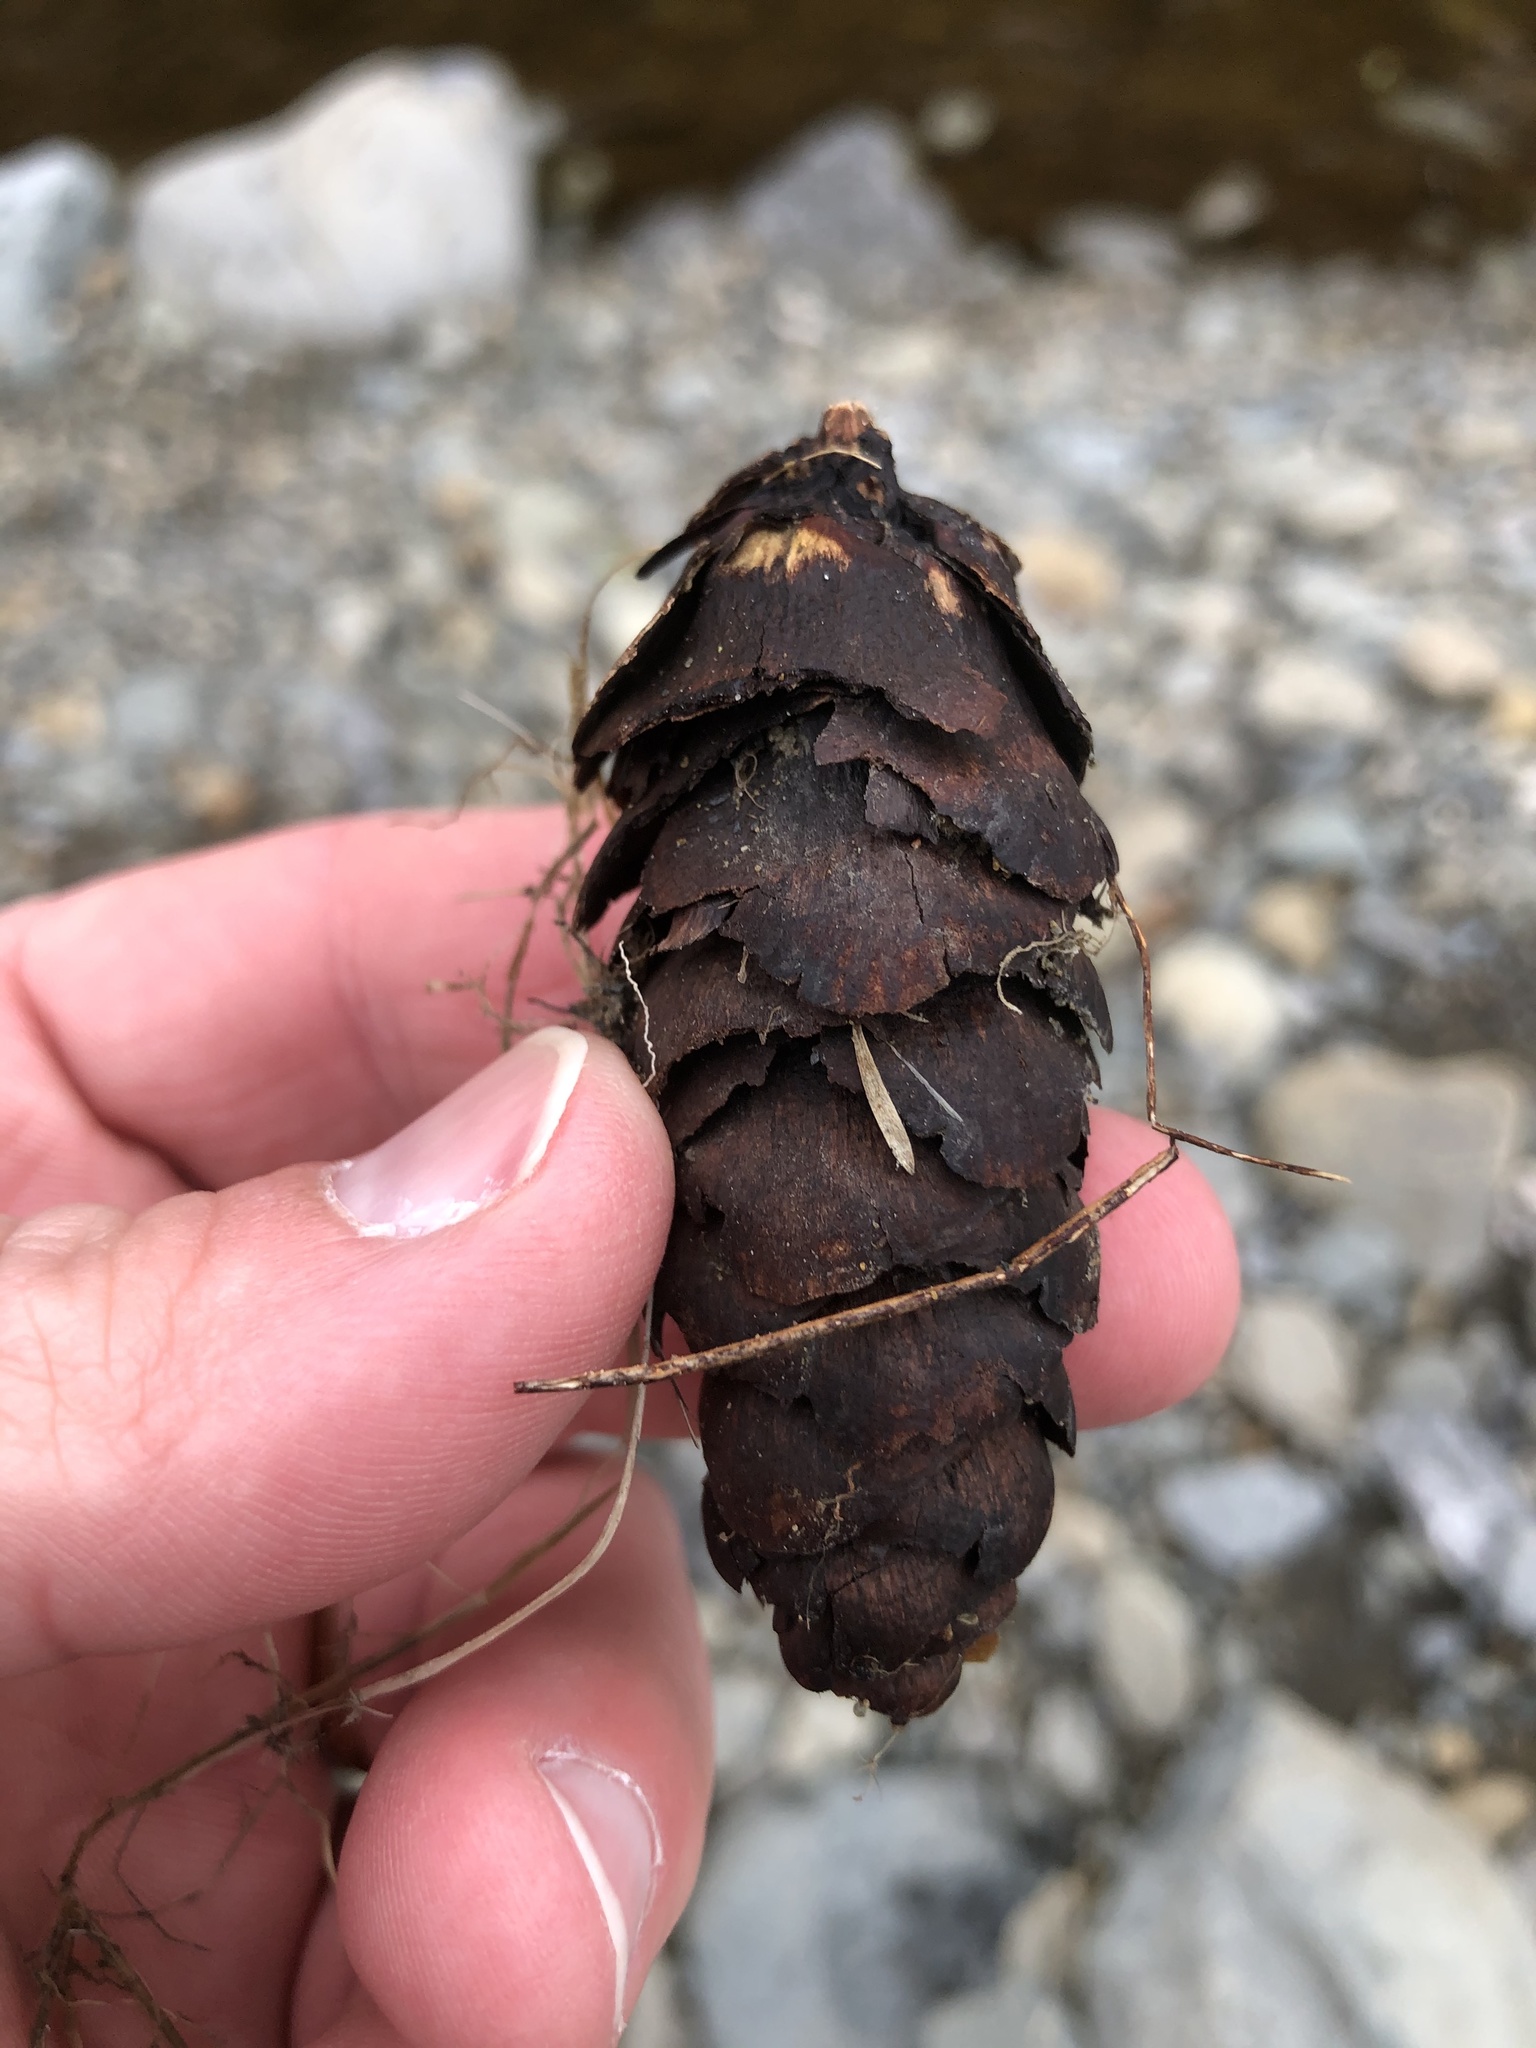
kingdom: Plantae
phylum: Tracheophyta
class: Pinopsida
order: Pinales
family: Pinaceae
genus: Pseudotsuga
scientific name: Pseudotsuga menziesii
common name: Douglas fir
